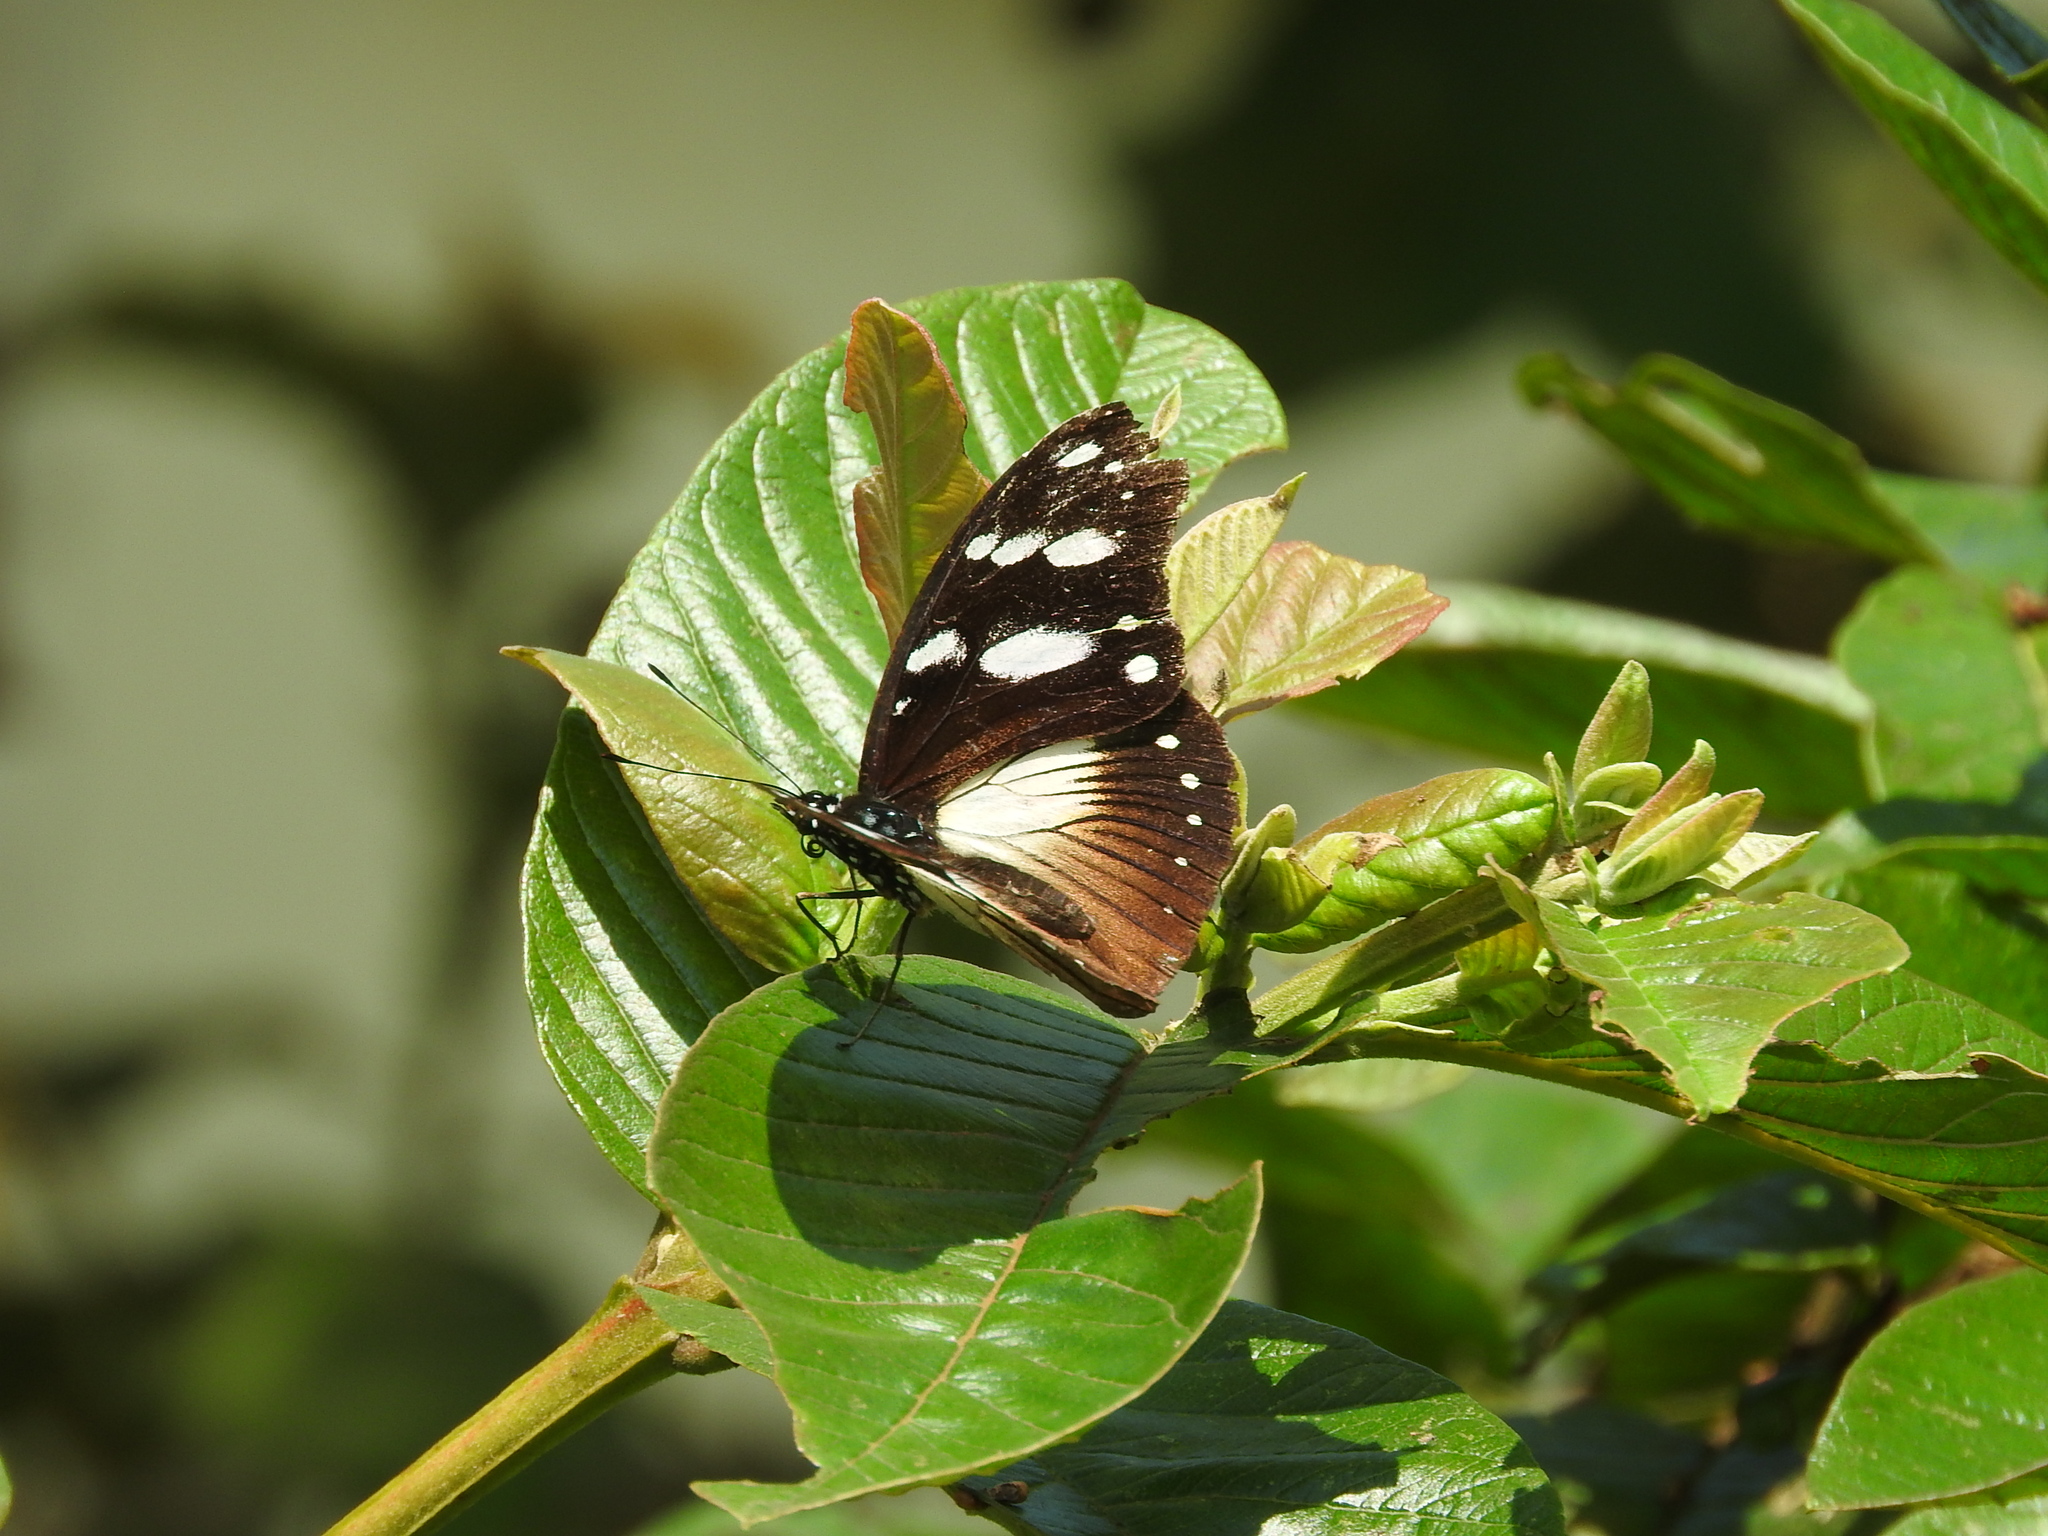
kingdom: Animalia
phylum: Arthropoda
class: Insecta
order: Lepidoptera
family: Nymphalidae
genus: Hypolimnas
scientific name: Hypolimnas dubius
